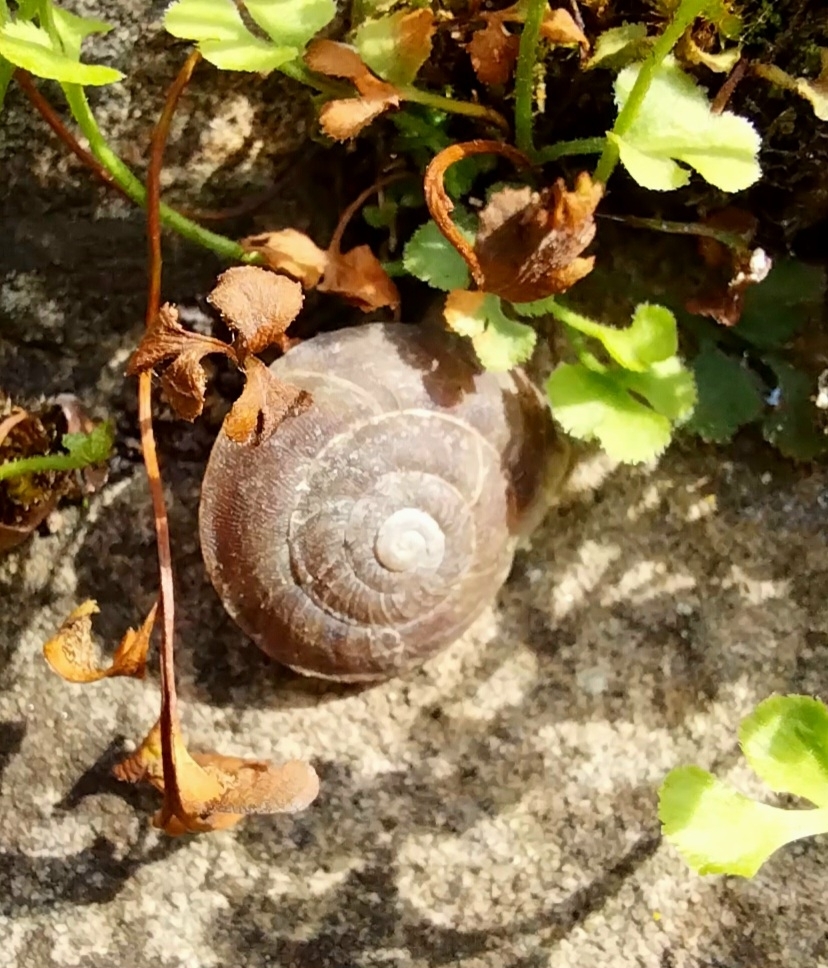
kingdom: Animalia
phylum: Mollusca
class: Gastropoda
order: Stylommatophora
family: Helicidae
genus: Helicigona
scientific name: Helicigona lapicida
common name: Lapidary snail
